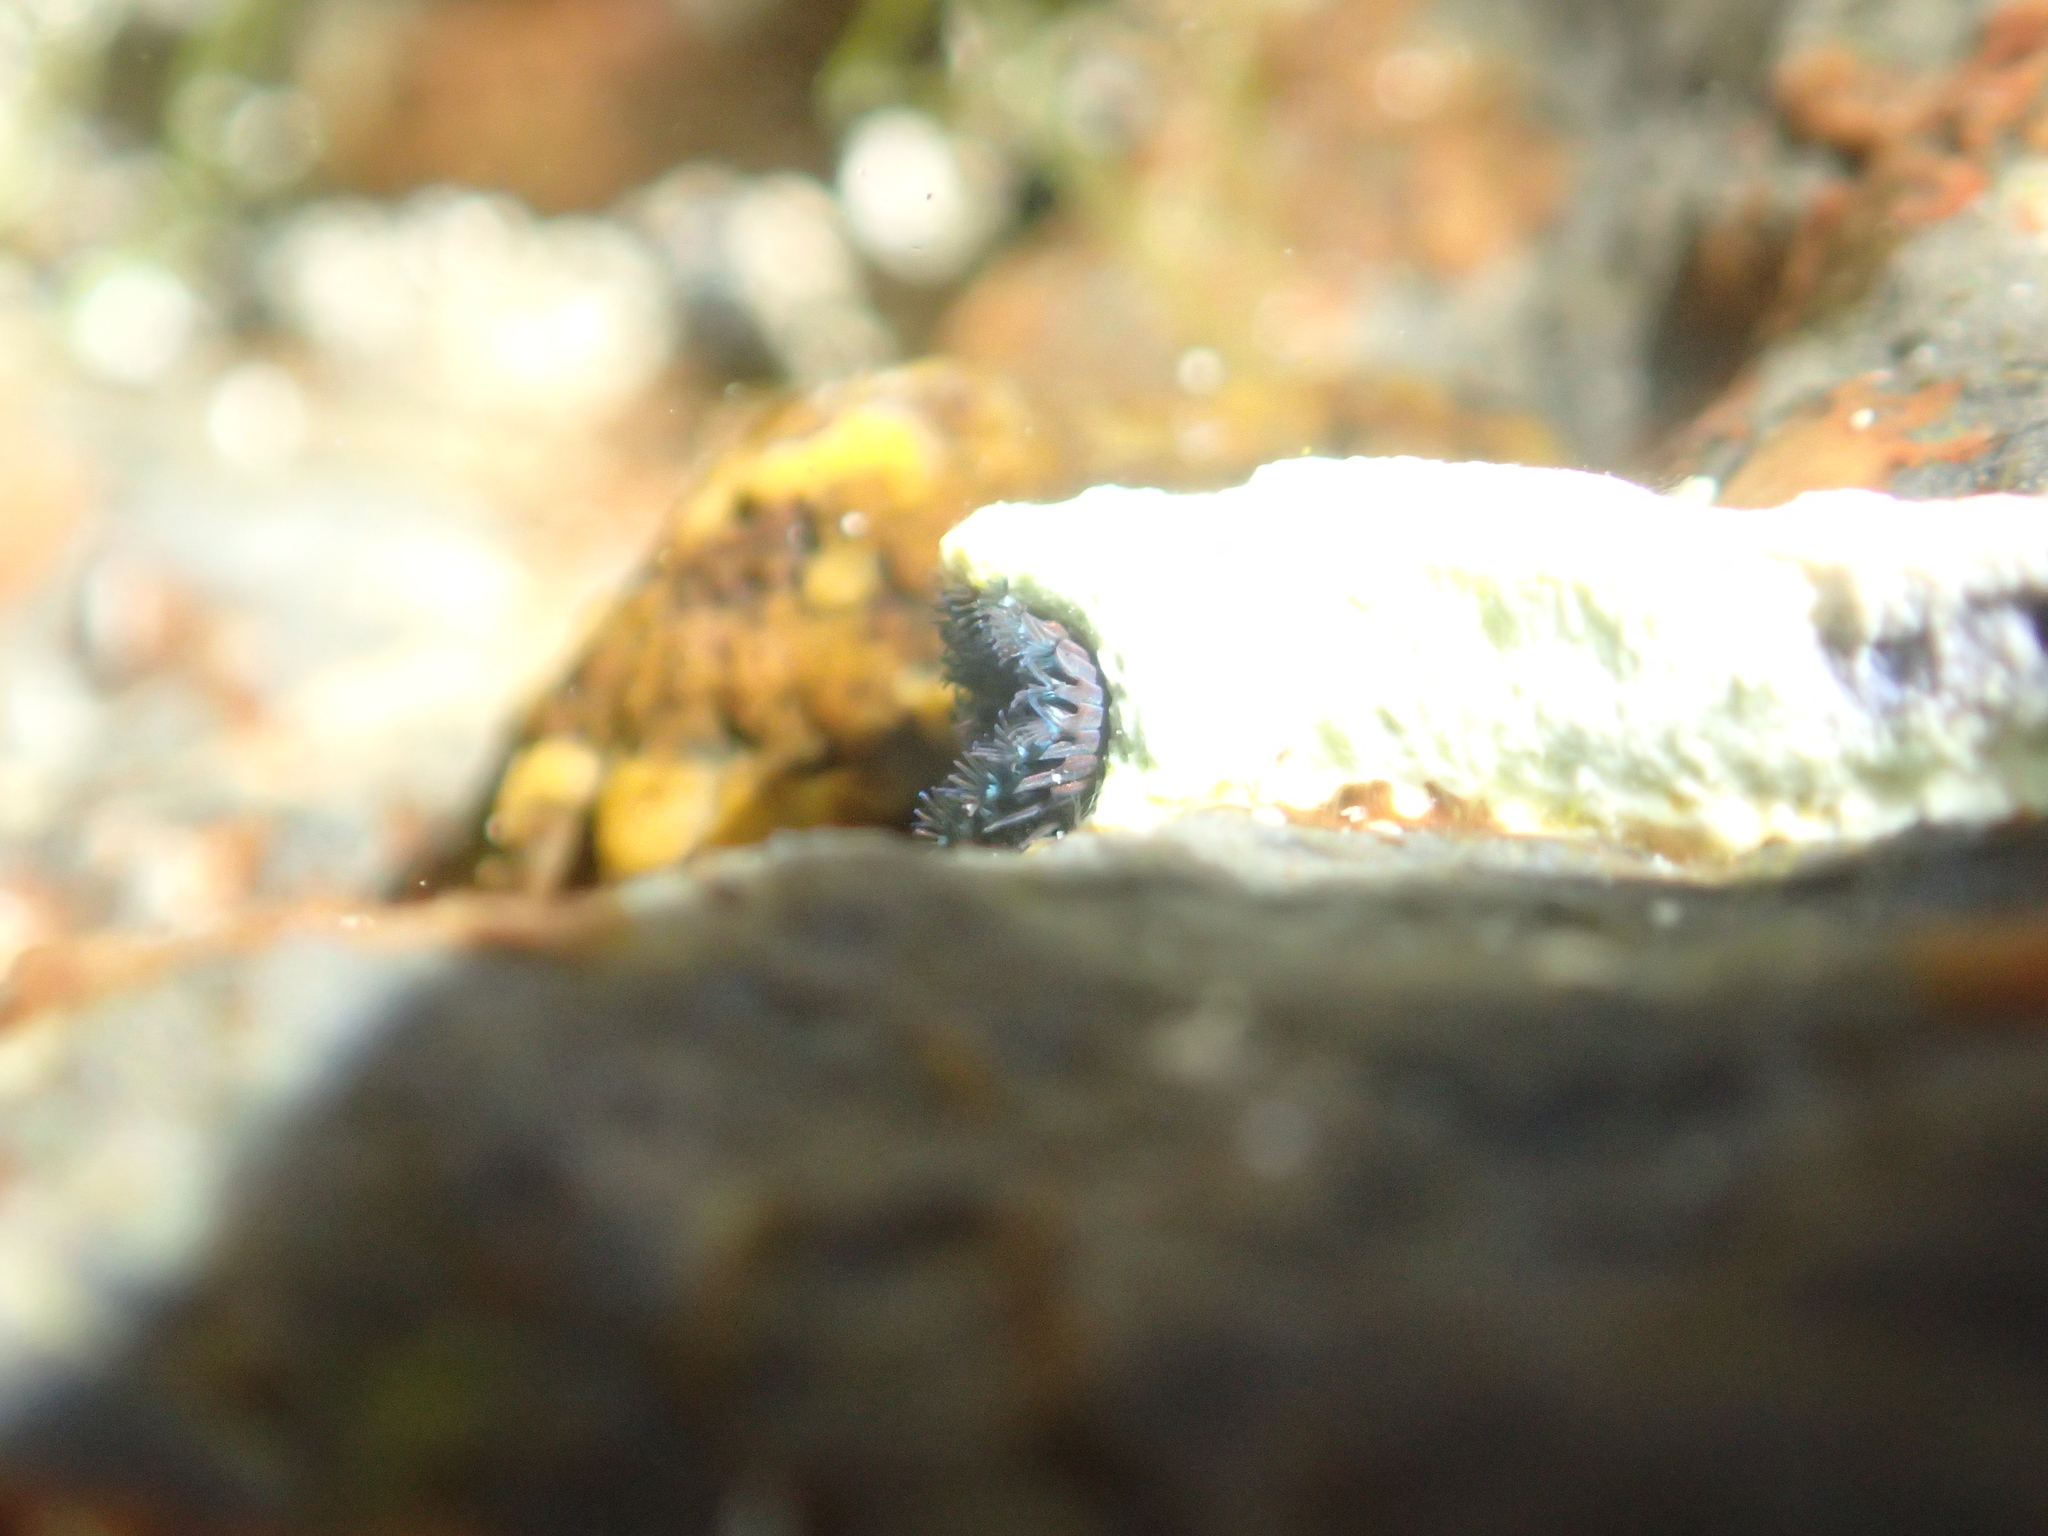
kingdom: Animalia
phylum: Annelida
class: Polychaeta
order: Sabellida
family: Serpulidae
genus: Spirobranchus
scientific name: Spirobranchus cariniferus
